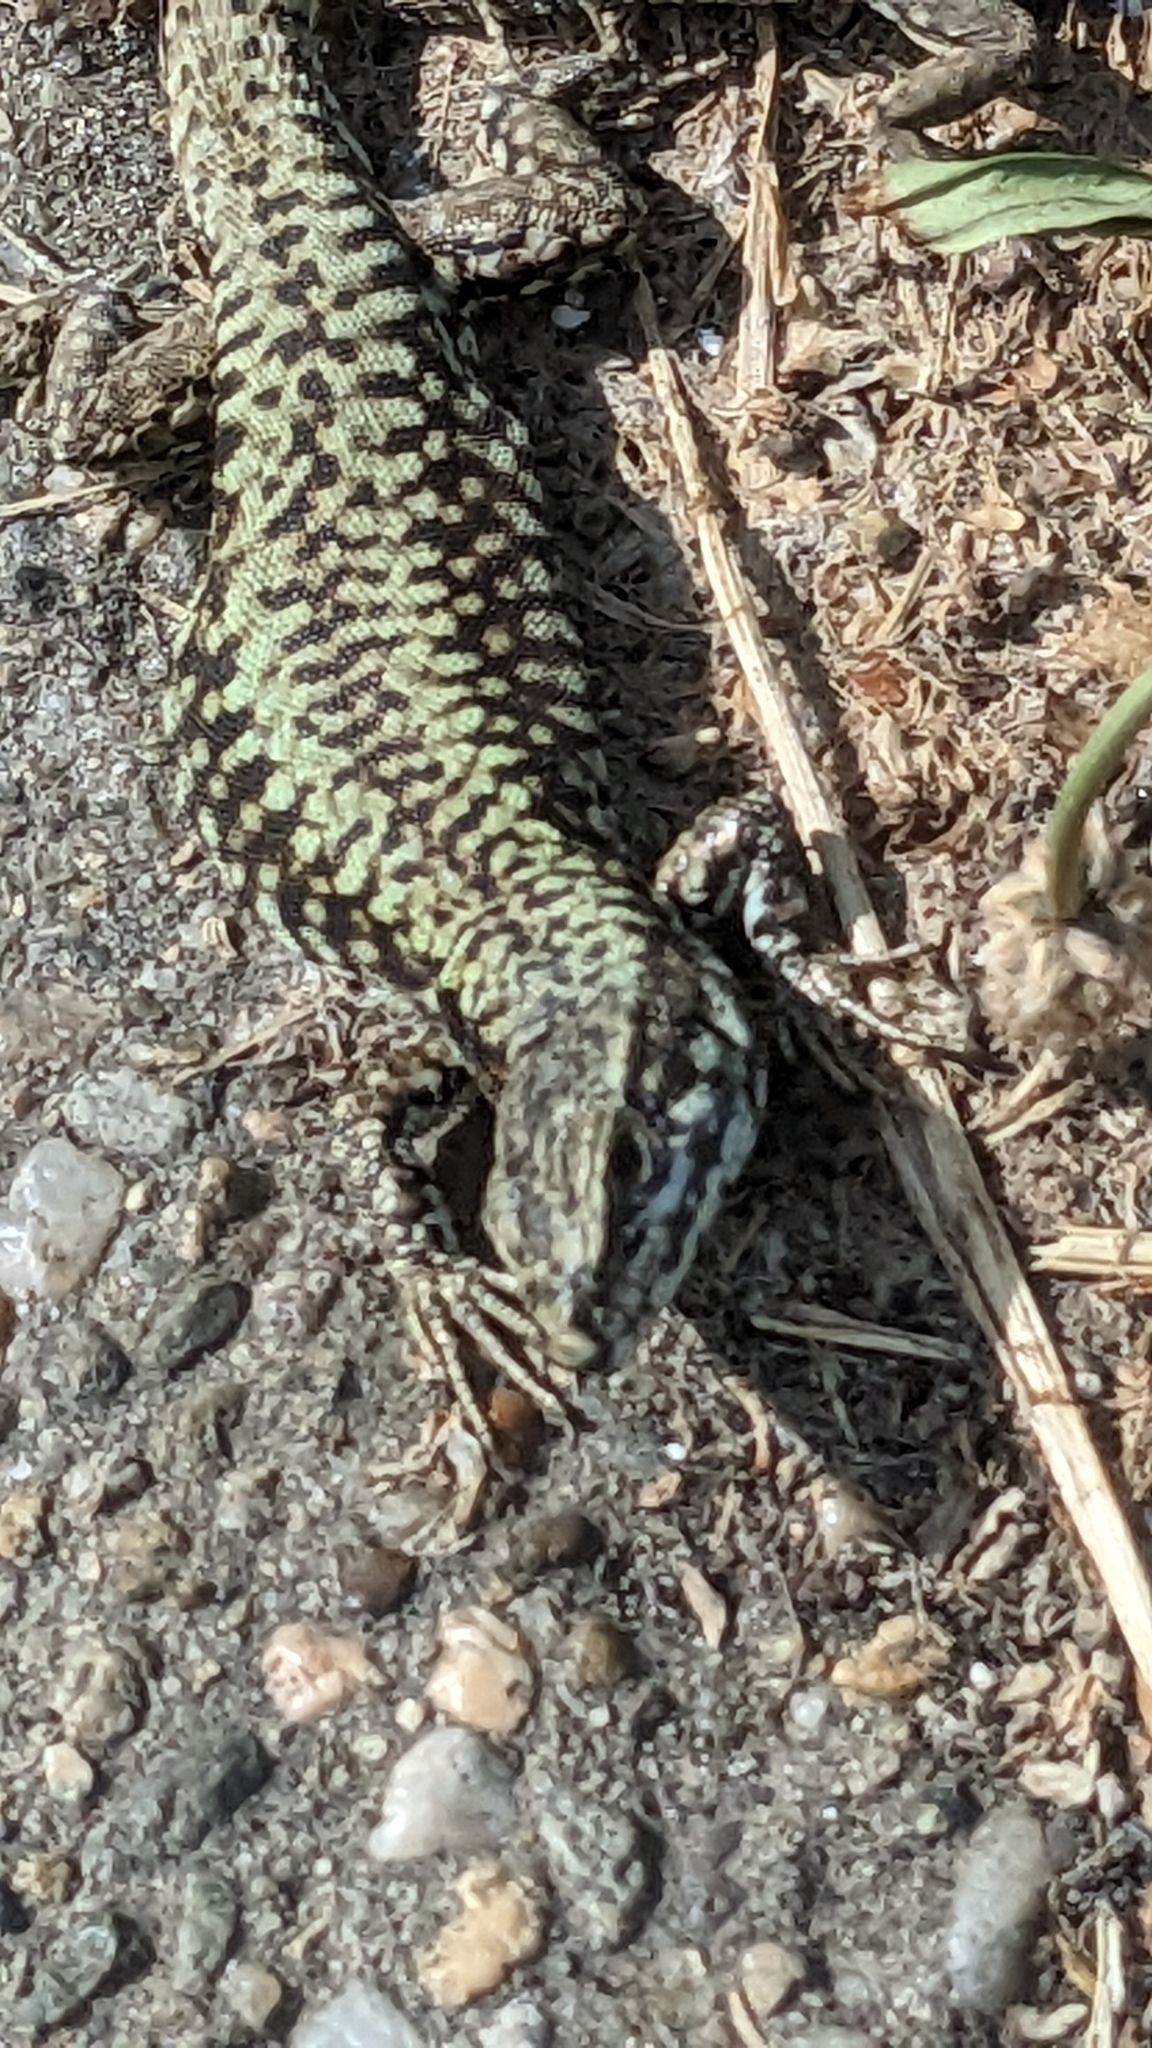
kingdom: Animalia
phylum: Chordata
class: Squamata
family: Lacertidae
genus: Podarcis
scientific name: Podarcis muralis
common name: Common wall lizard
